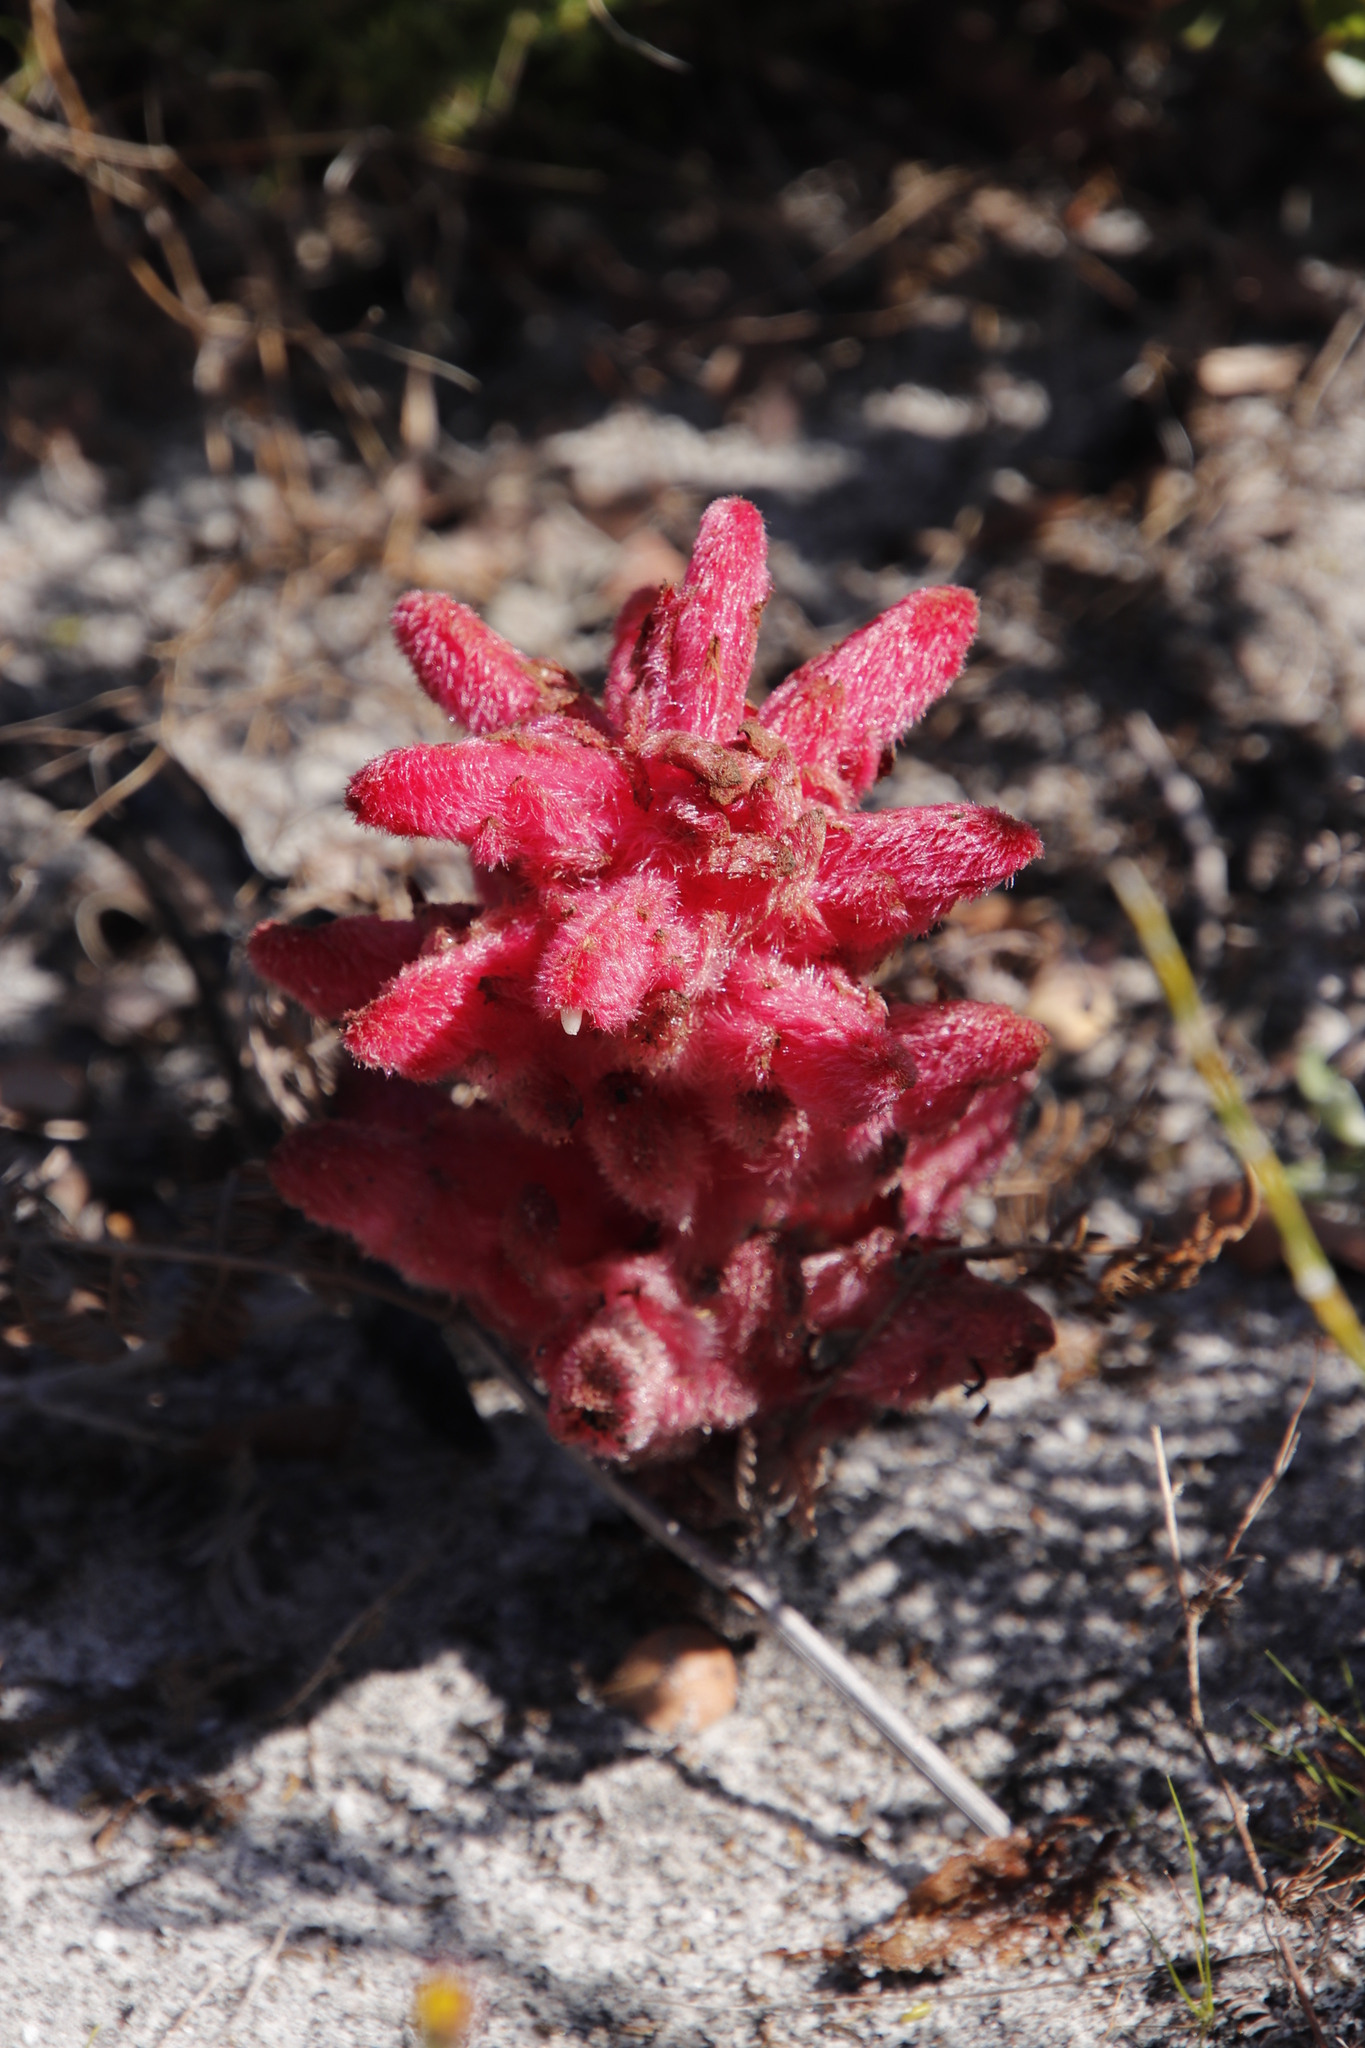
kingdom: Plantae
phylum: Tracheophyta
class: Magnoliopsida
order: Lamiales
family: Orobanchaceae
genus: Hyobanche
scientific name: Hyobanche sanguinea
